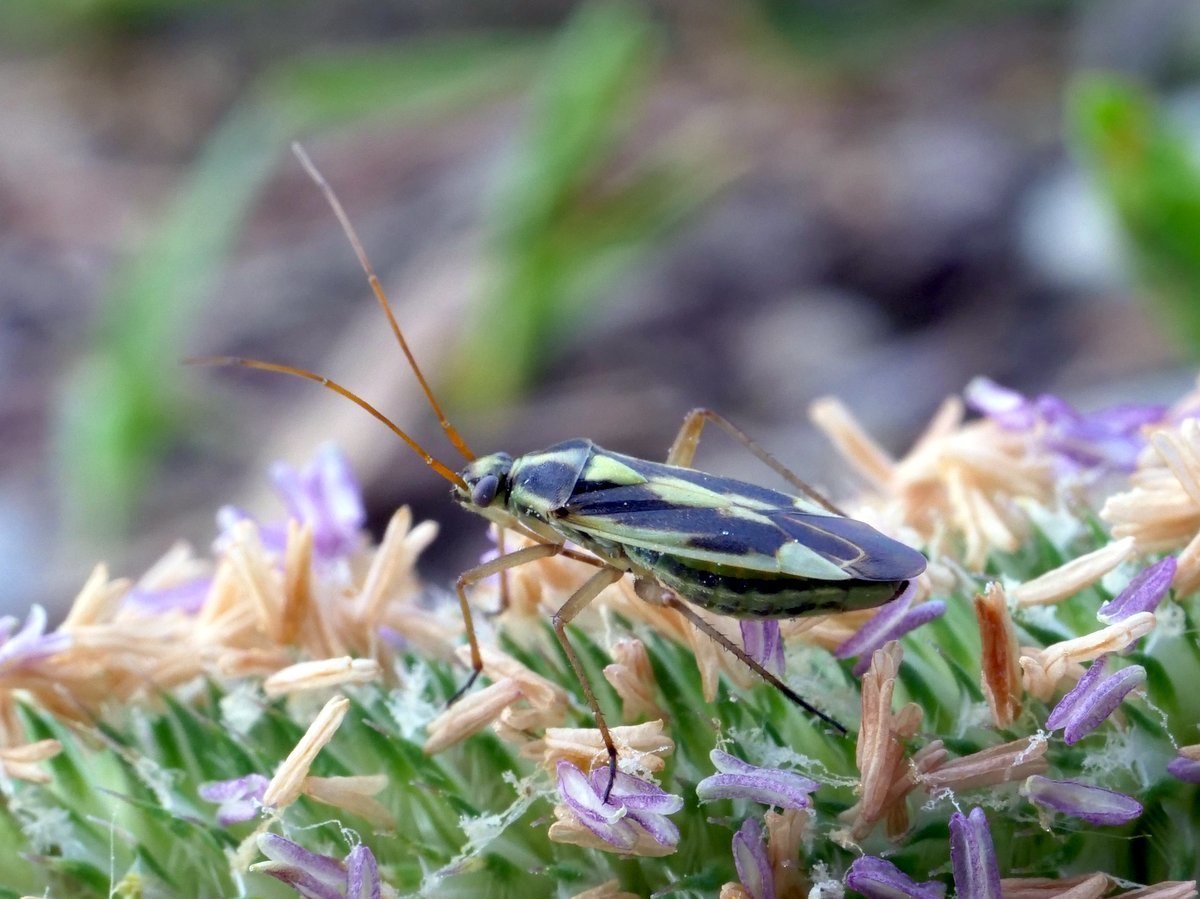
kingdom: Animalia
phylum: Arthropoda
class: Insecta
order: Hemiptera
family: Miridae
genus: Stenotus
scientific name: Stenotus binotatus
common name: Plant bug
